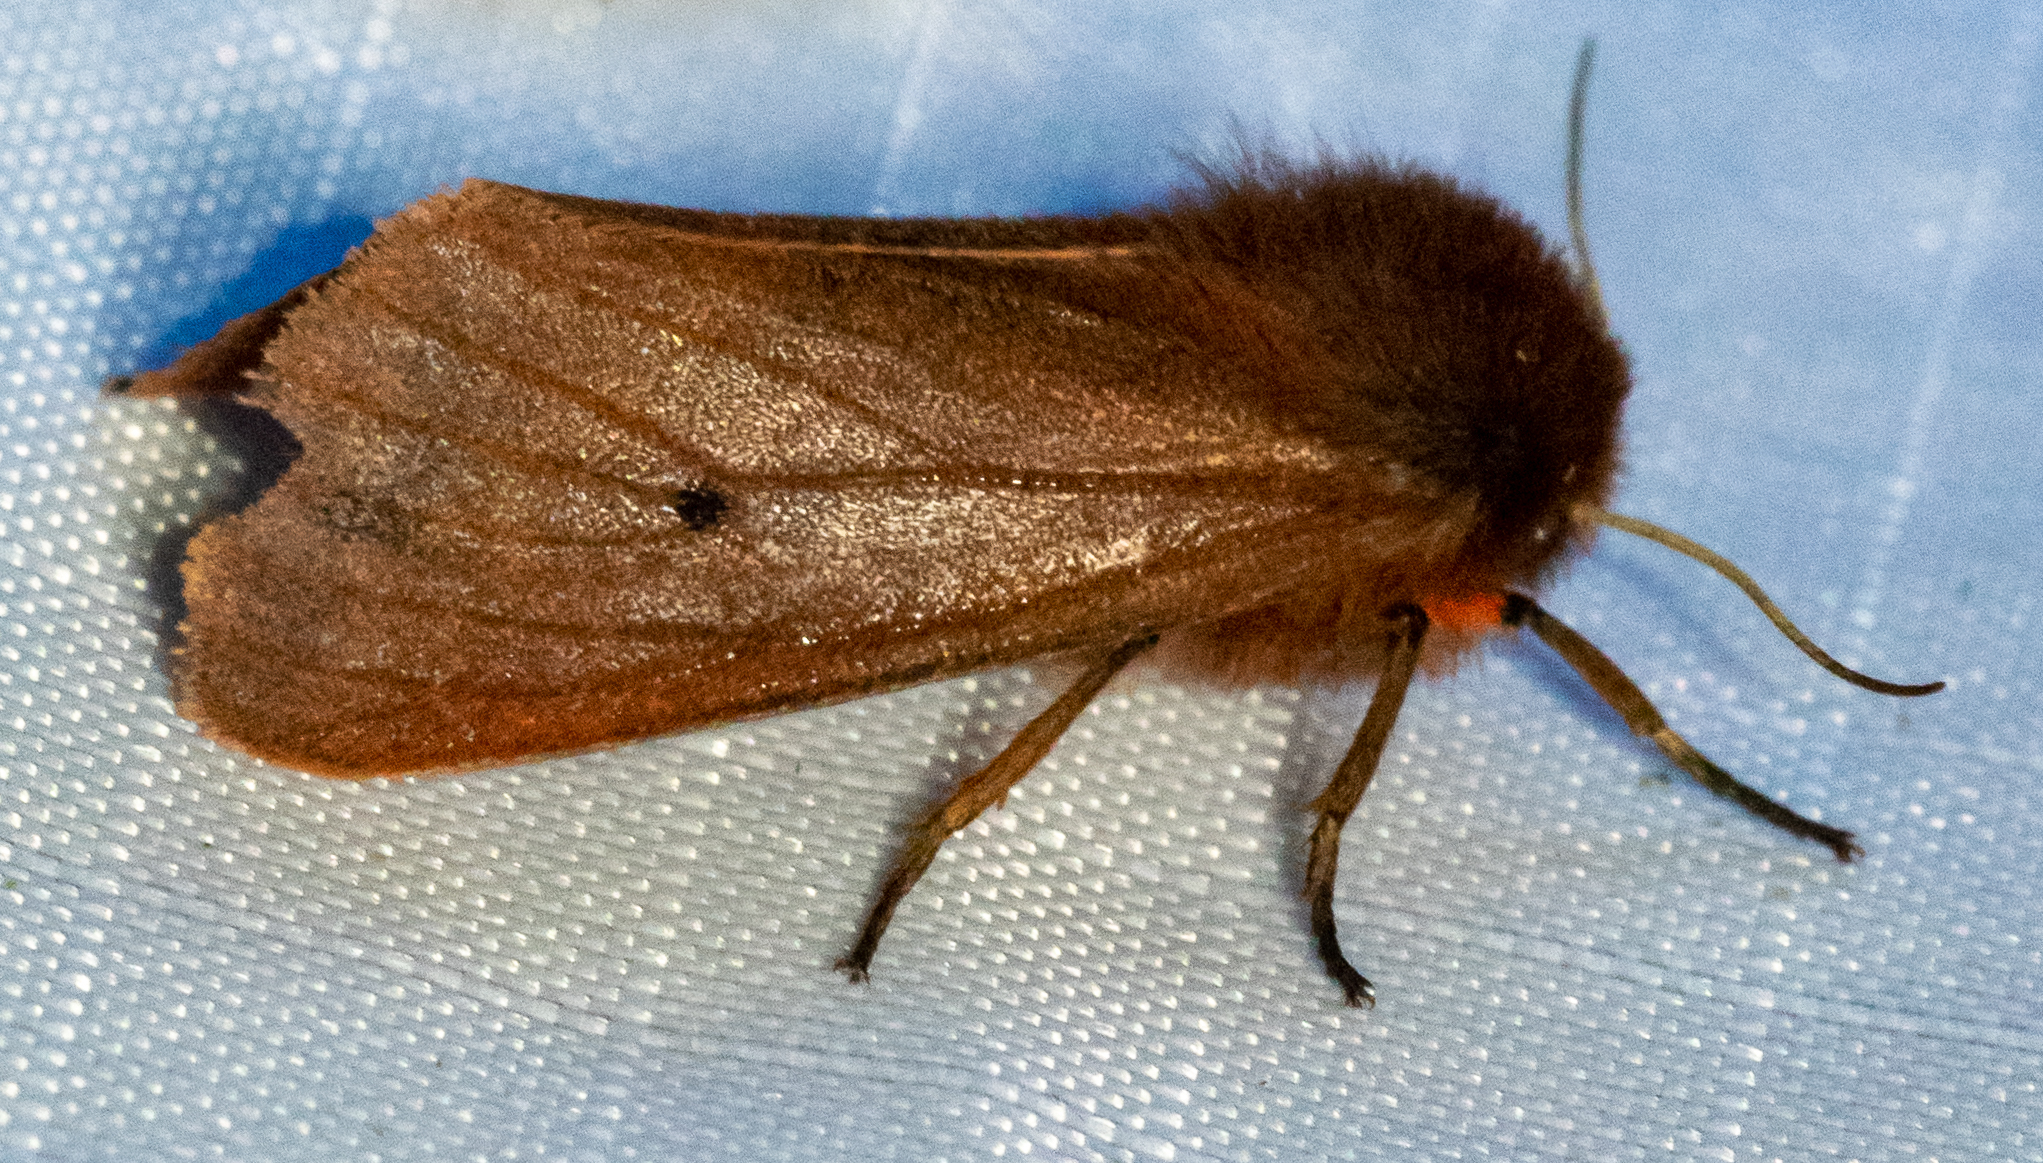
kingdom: Animalia
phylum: Arthropoda
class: Insecta
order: Lepidoptera
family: Erebidae
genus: Phragmatobia
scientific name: Phragmatobia fuliginosa
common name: Ruby tiger
